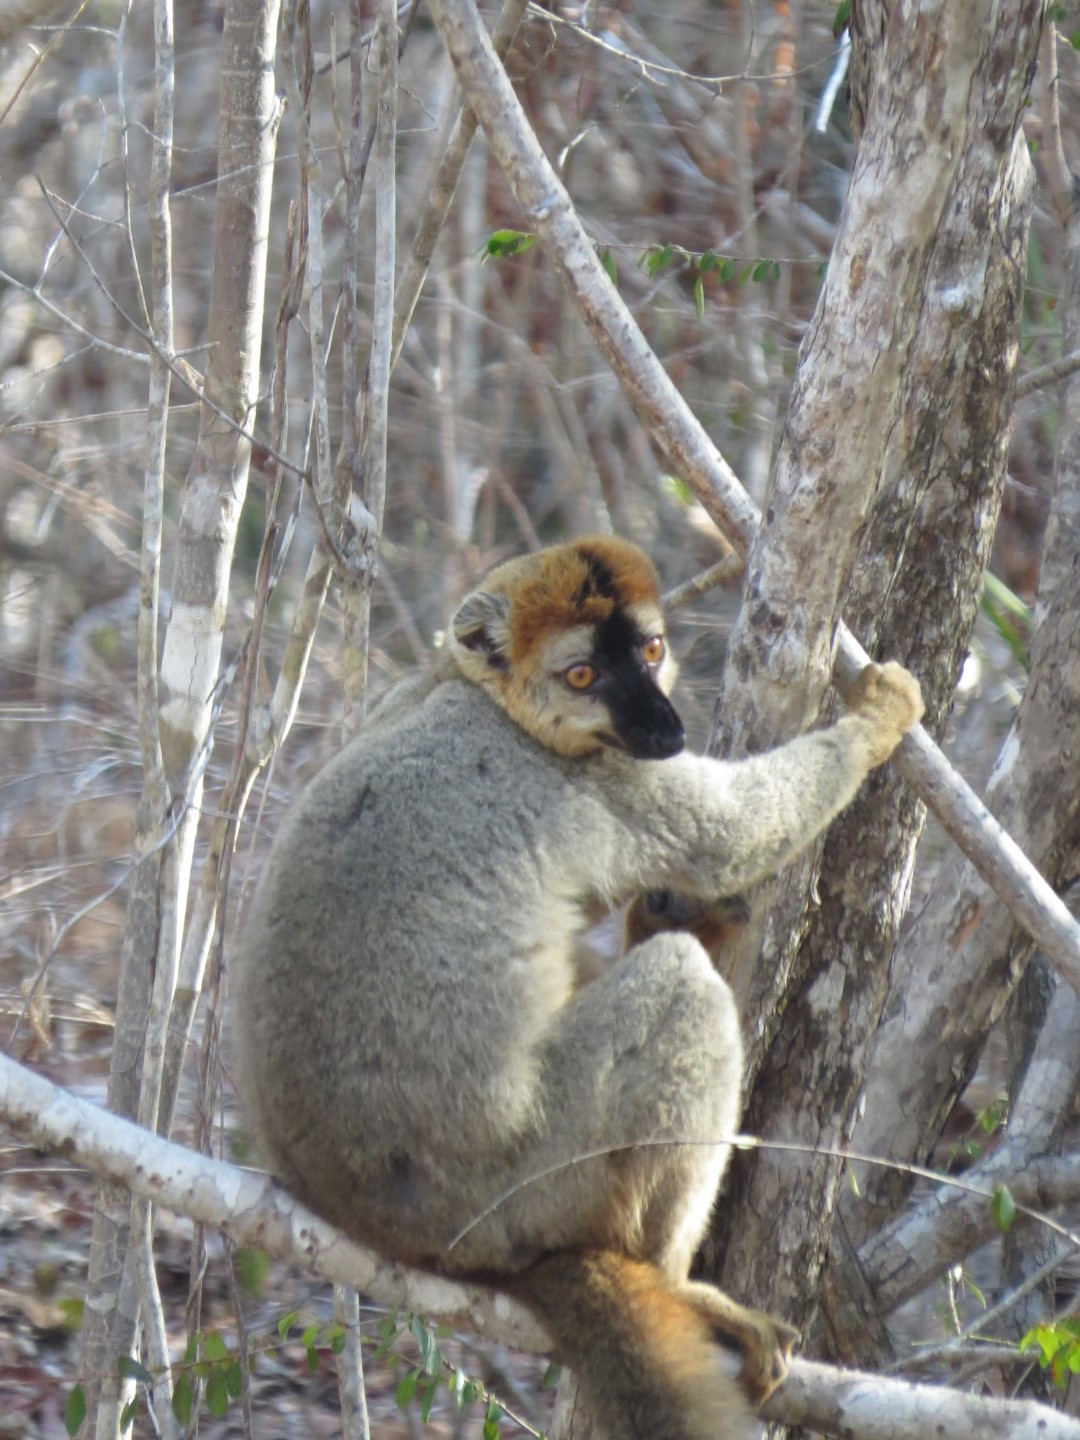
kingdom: Animalia
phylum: Chordata
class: Mammalia
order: Primates
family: Lemuridae
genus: Eulemur
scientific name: Eulemur rufifrons
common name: Red-fronted brown lemur
